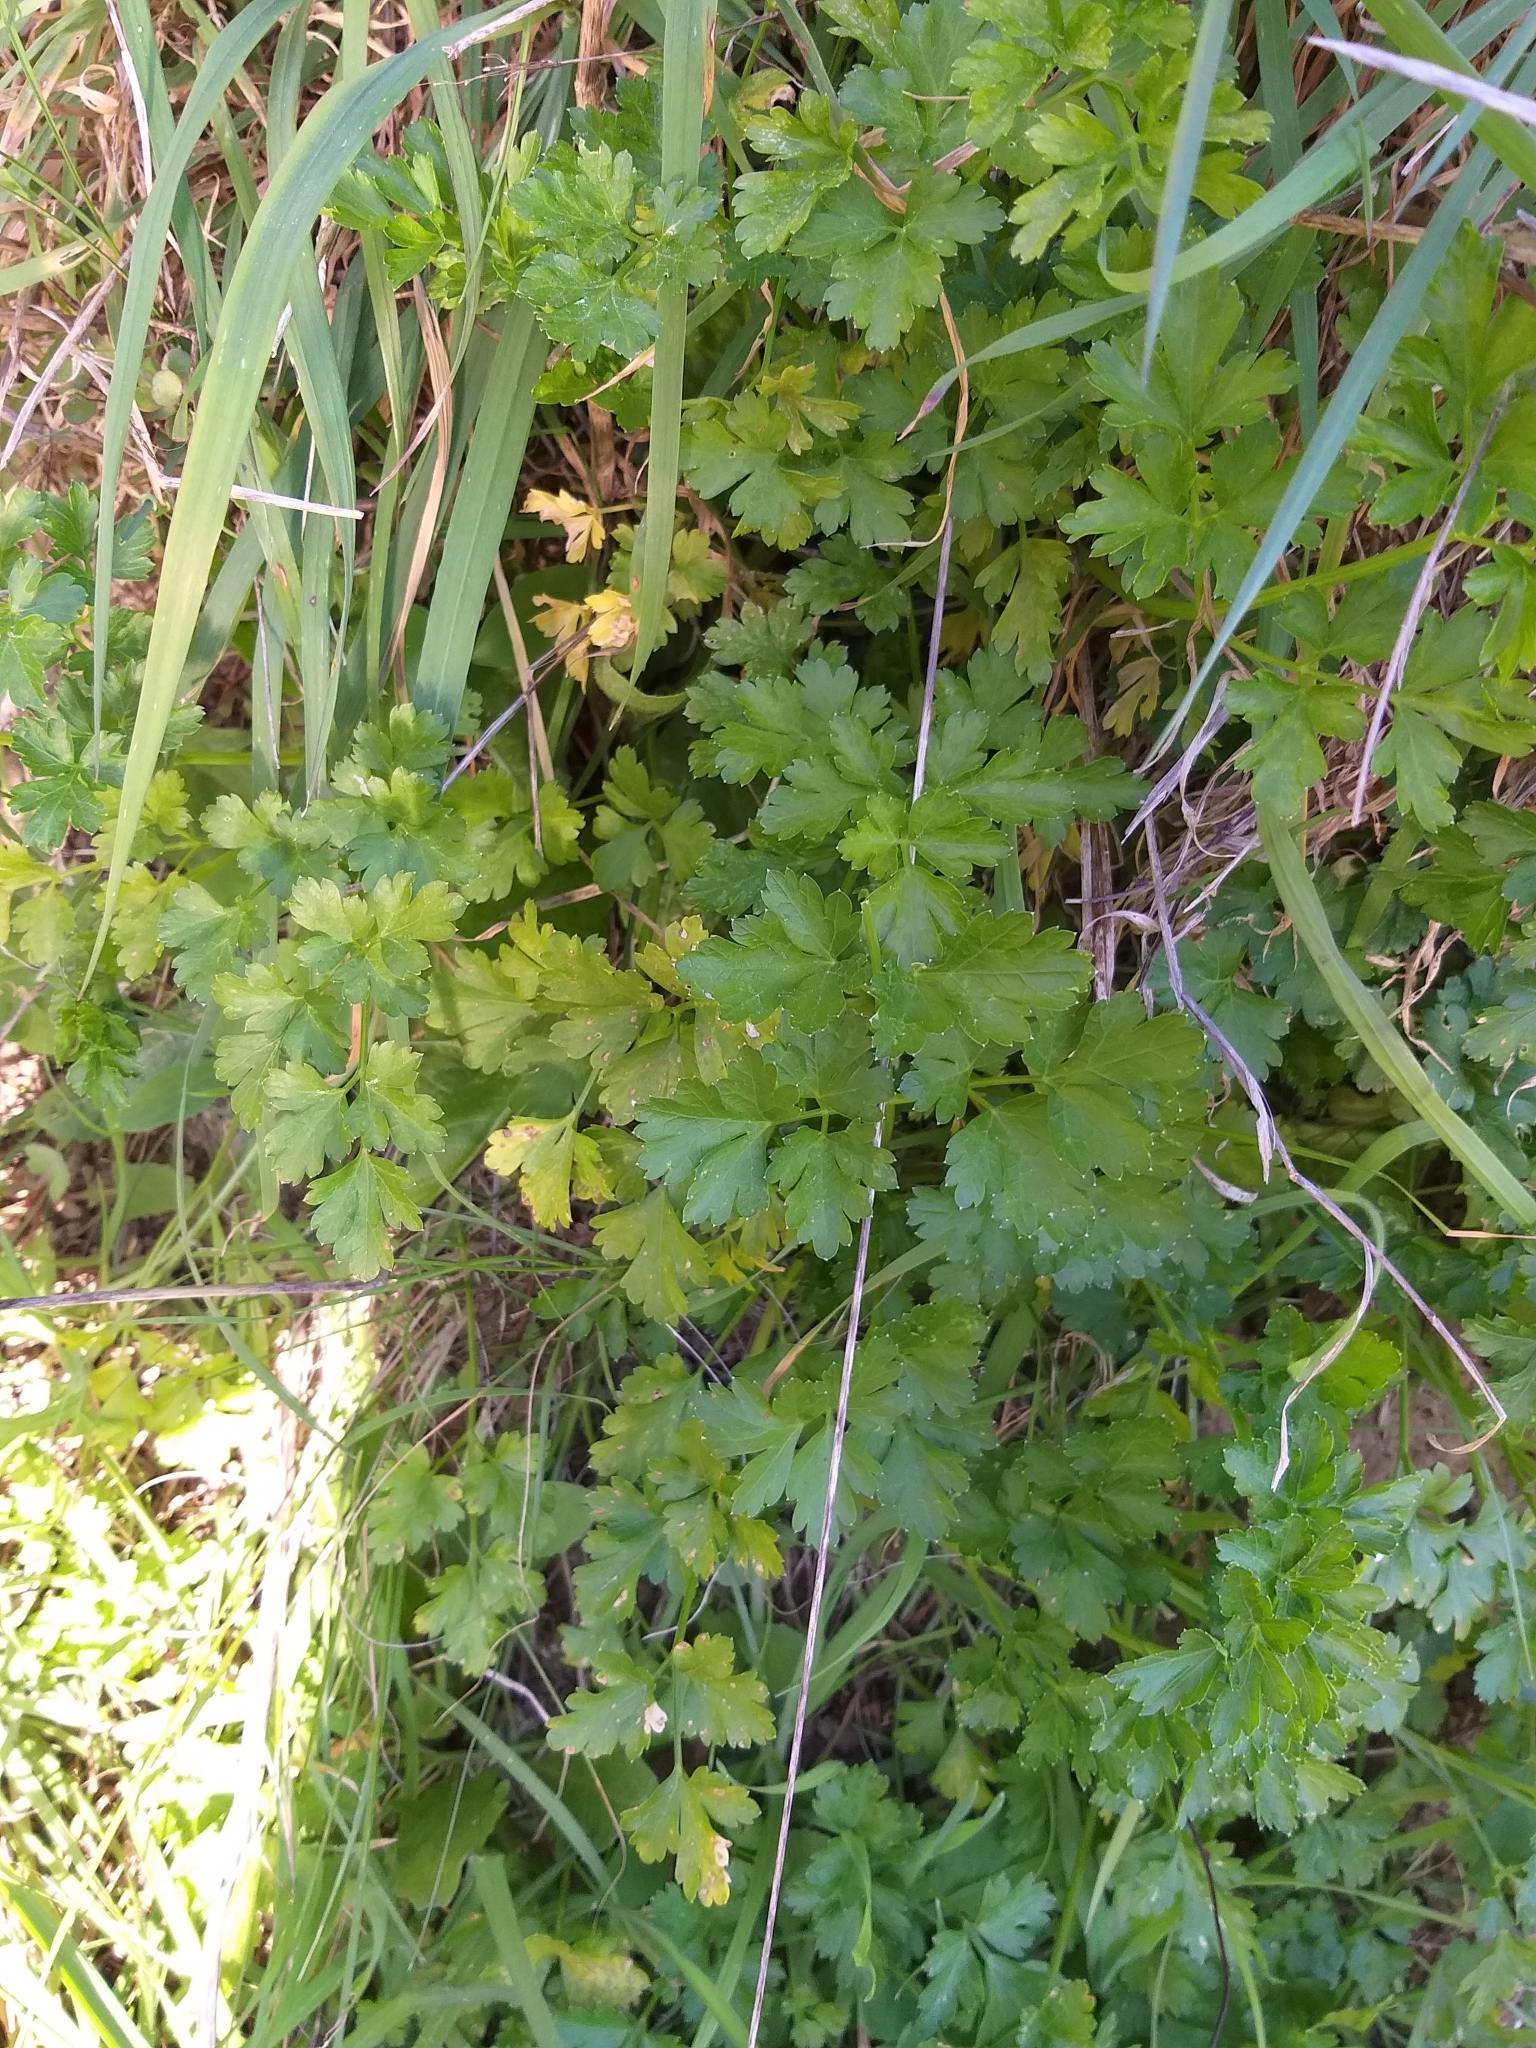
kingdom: Plantae
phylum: Tracheophyta
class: Magnoliopsida
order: Apiales
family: Apiaceae
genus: Petroselinum
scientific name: Petroselinum crispum
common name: Parsley
